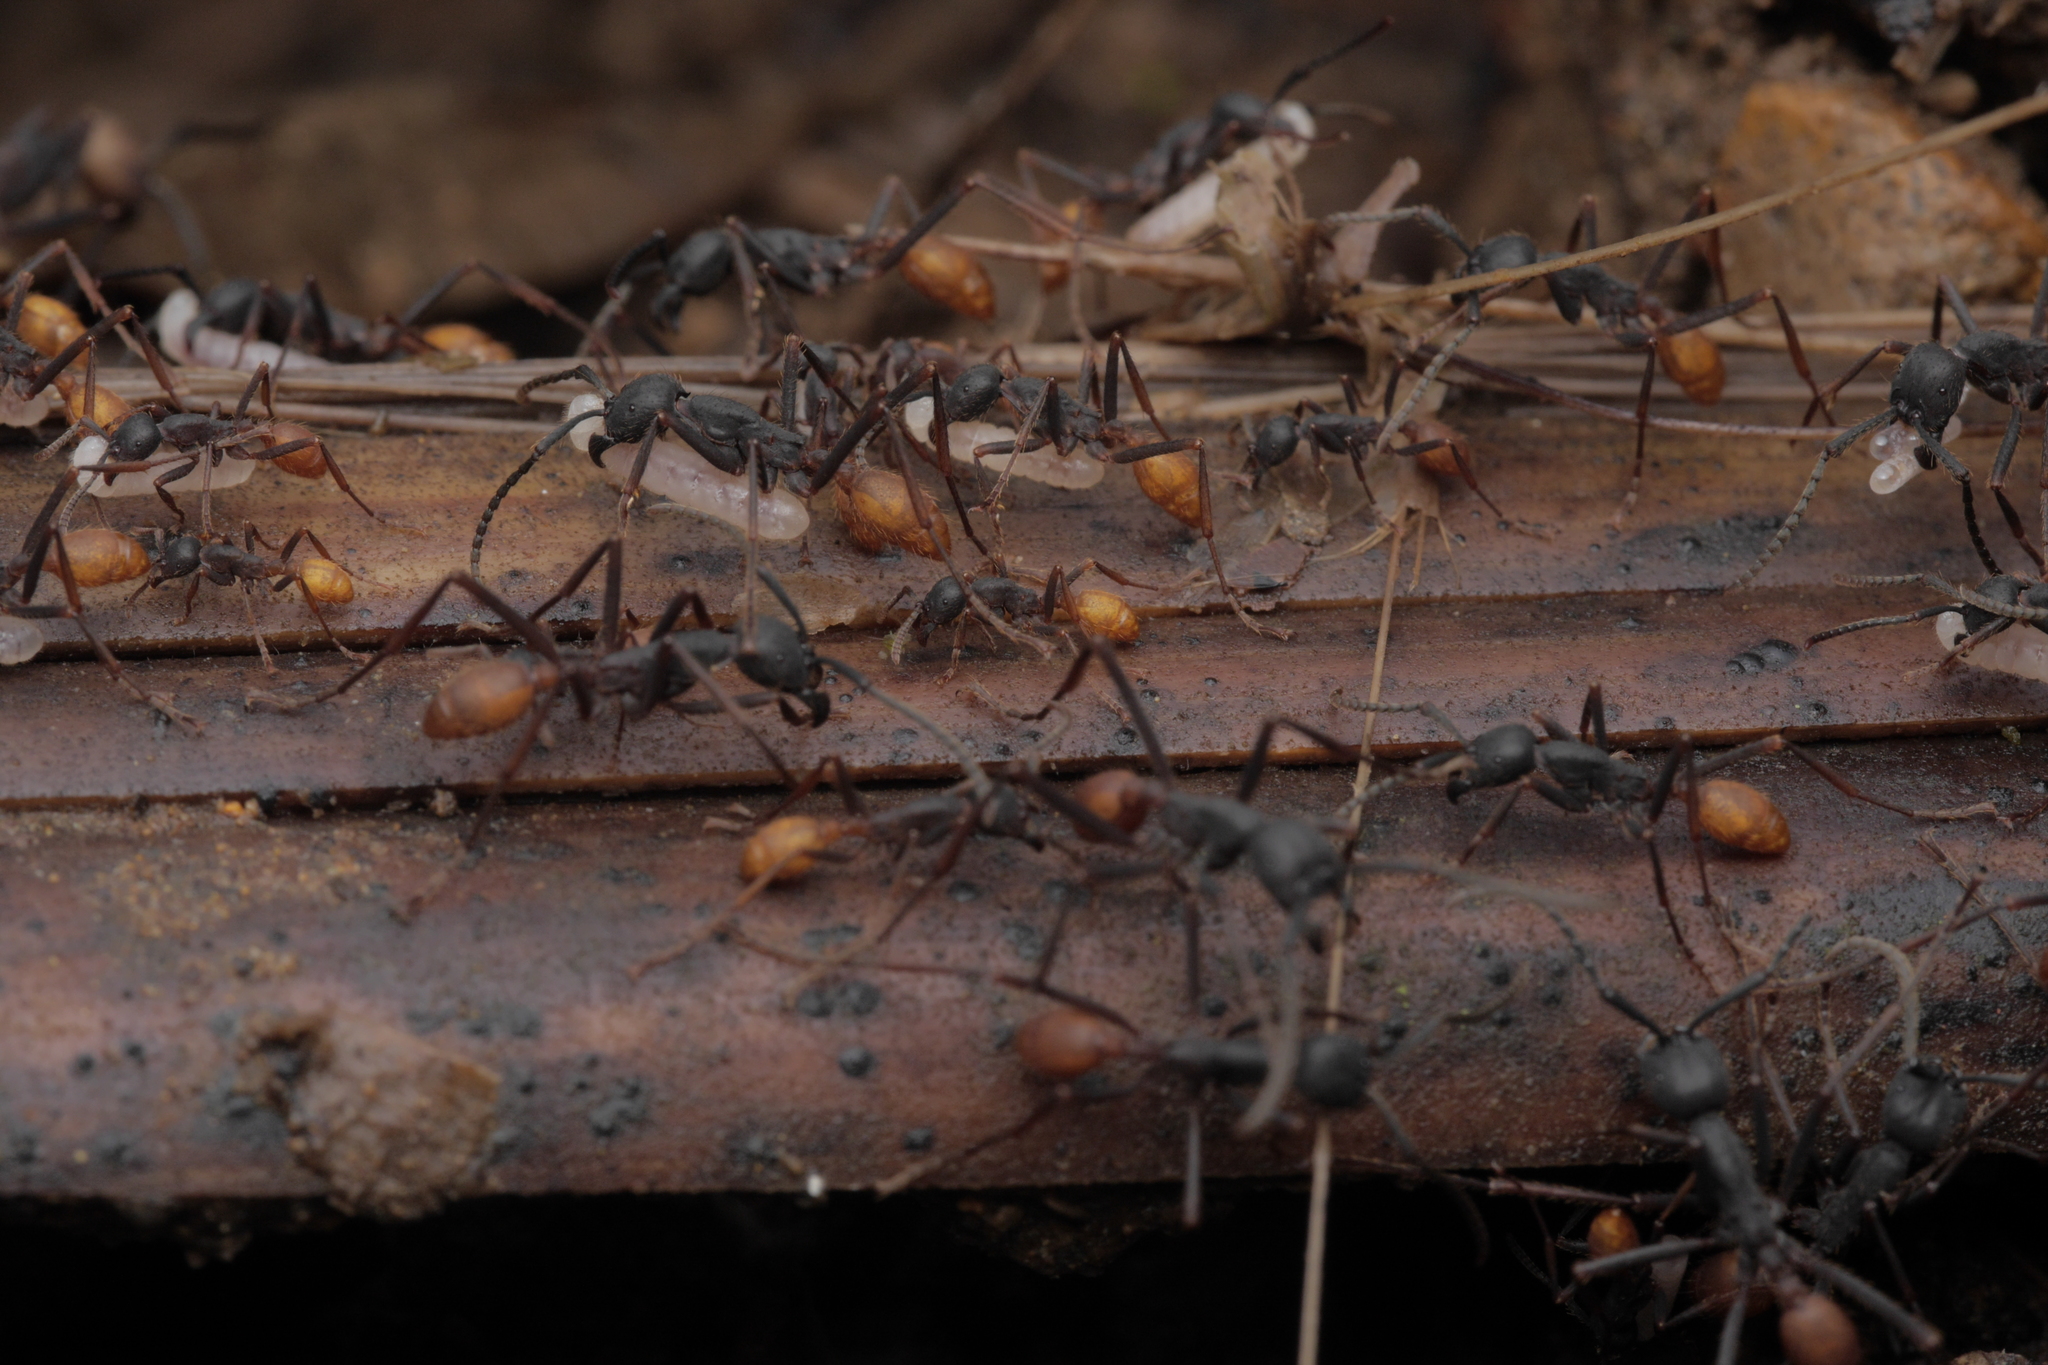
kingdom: Animalia
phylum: Arthropoda
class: Insecta
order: Hymenoptera
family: Formicidae
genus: Eciton
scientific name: Eciton burchellii
